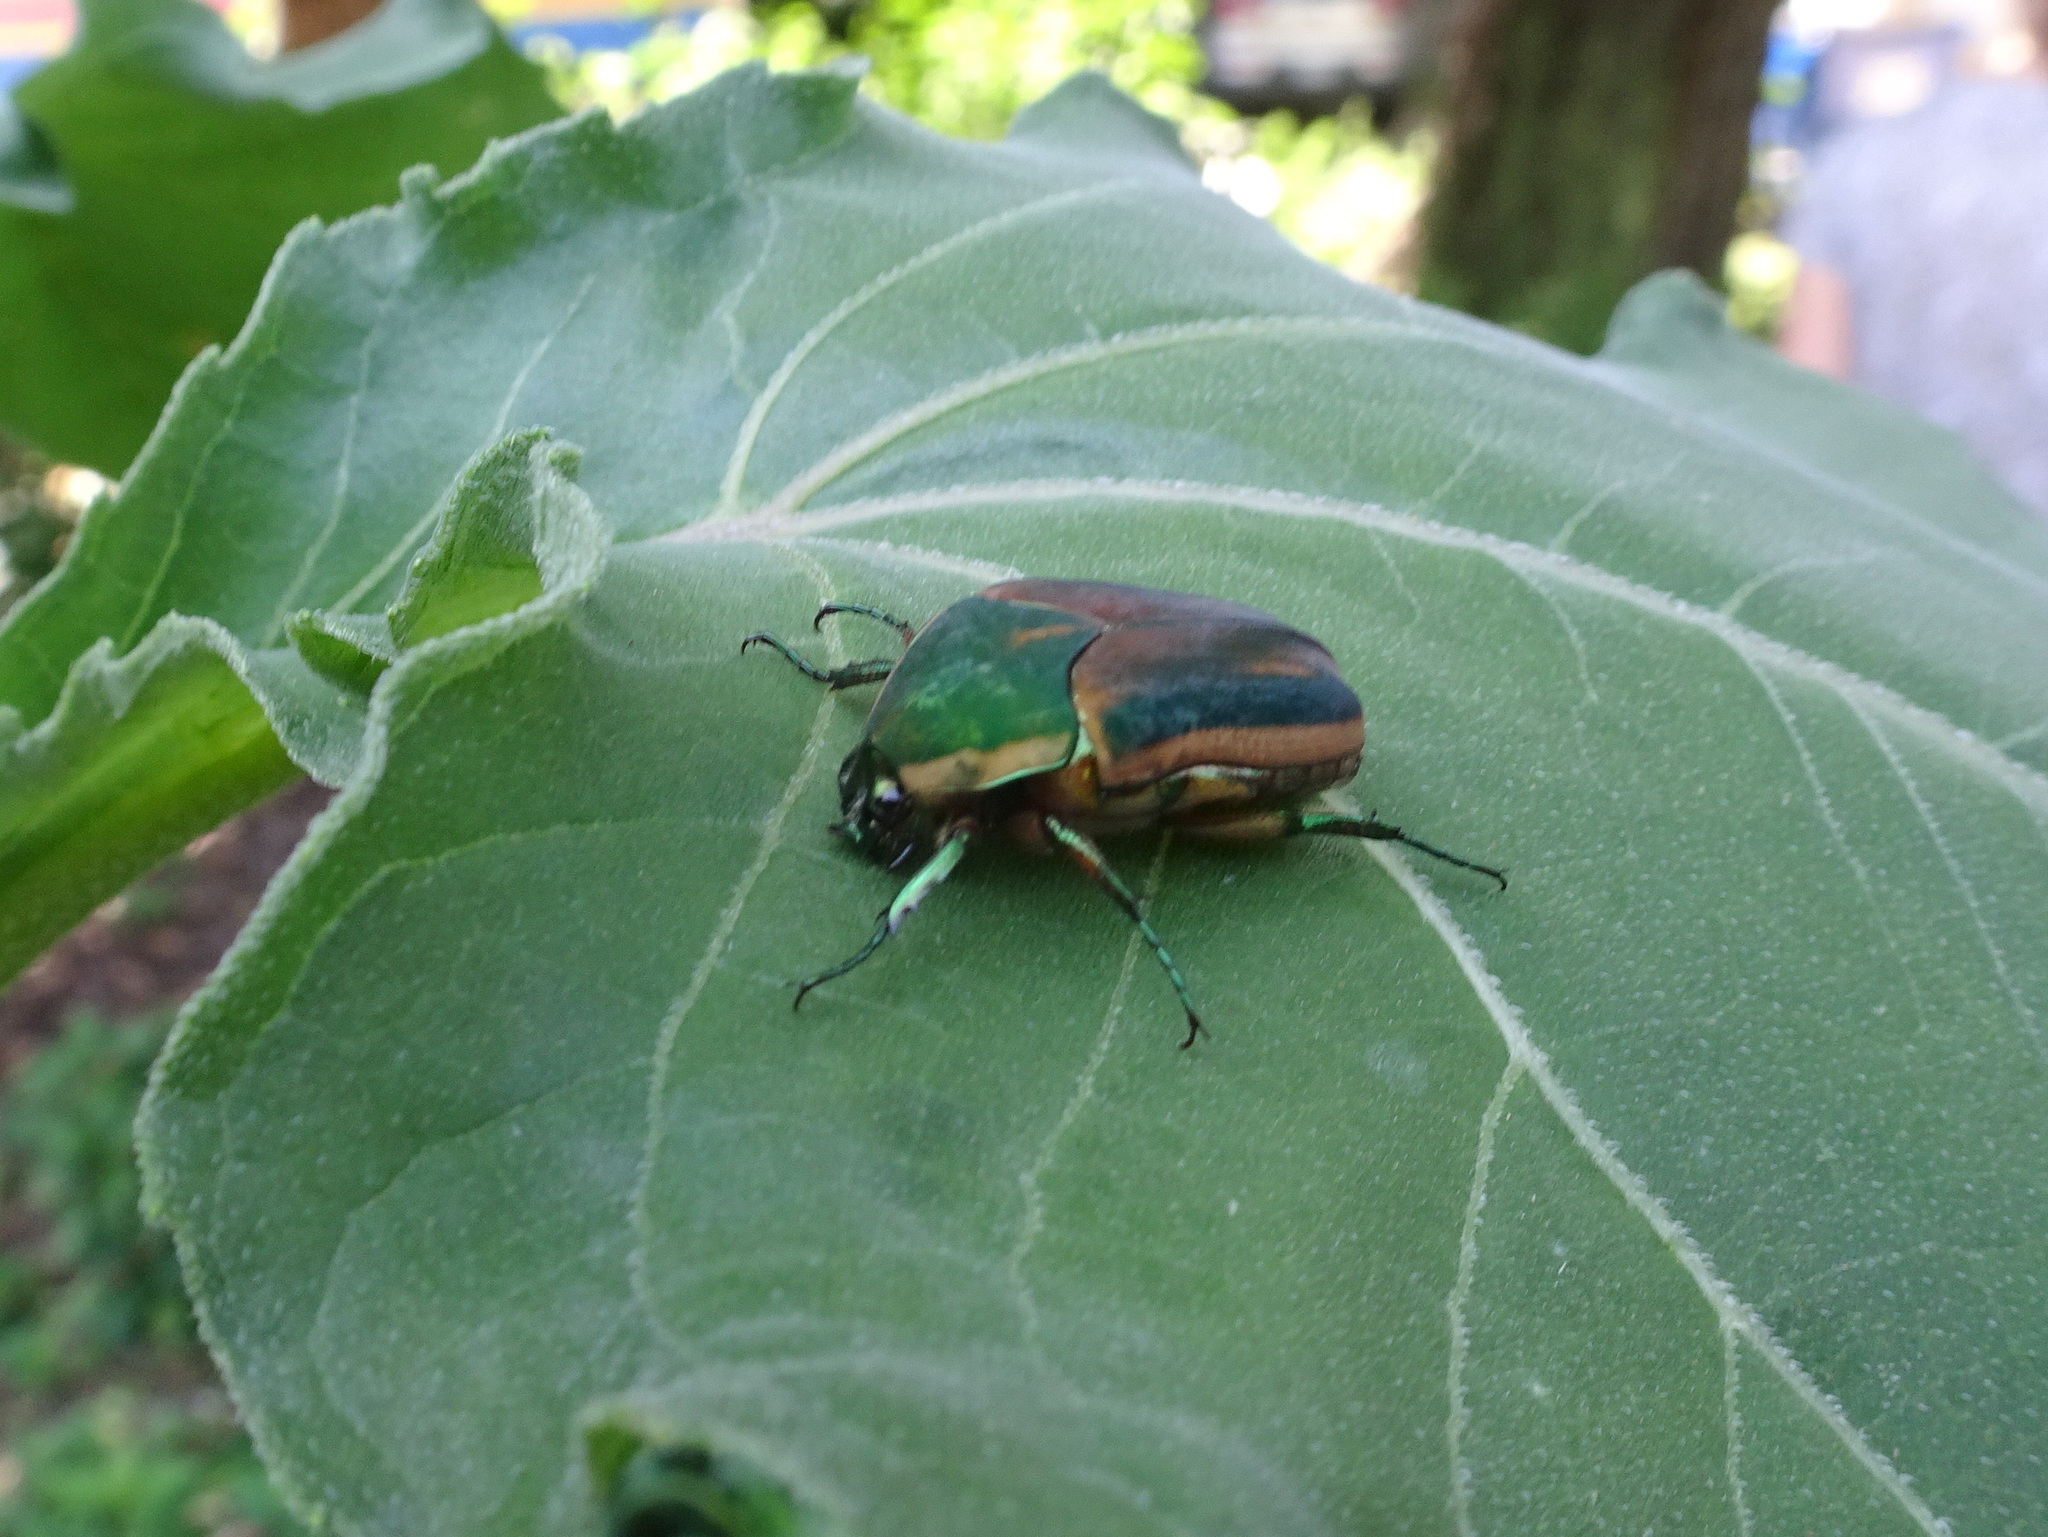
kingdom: Animalia
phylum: Arthropoda
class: Insecta
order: Coleoptera
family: Scarabaeidae
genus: Cotinis
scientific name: Cotinis nitida
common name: Common green june beetle
